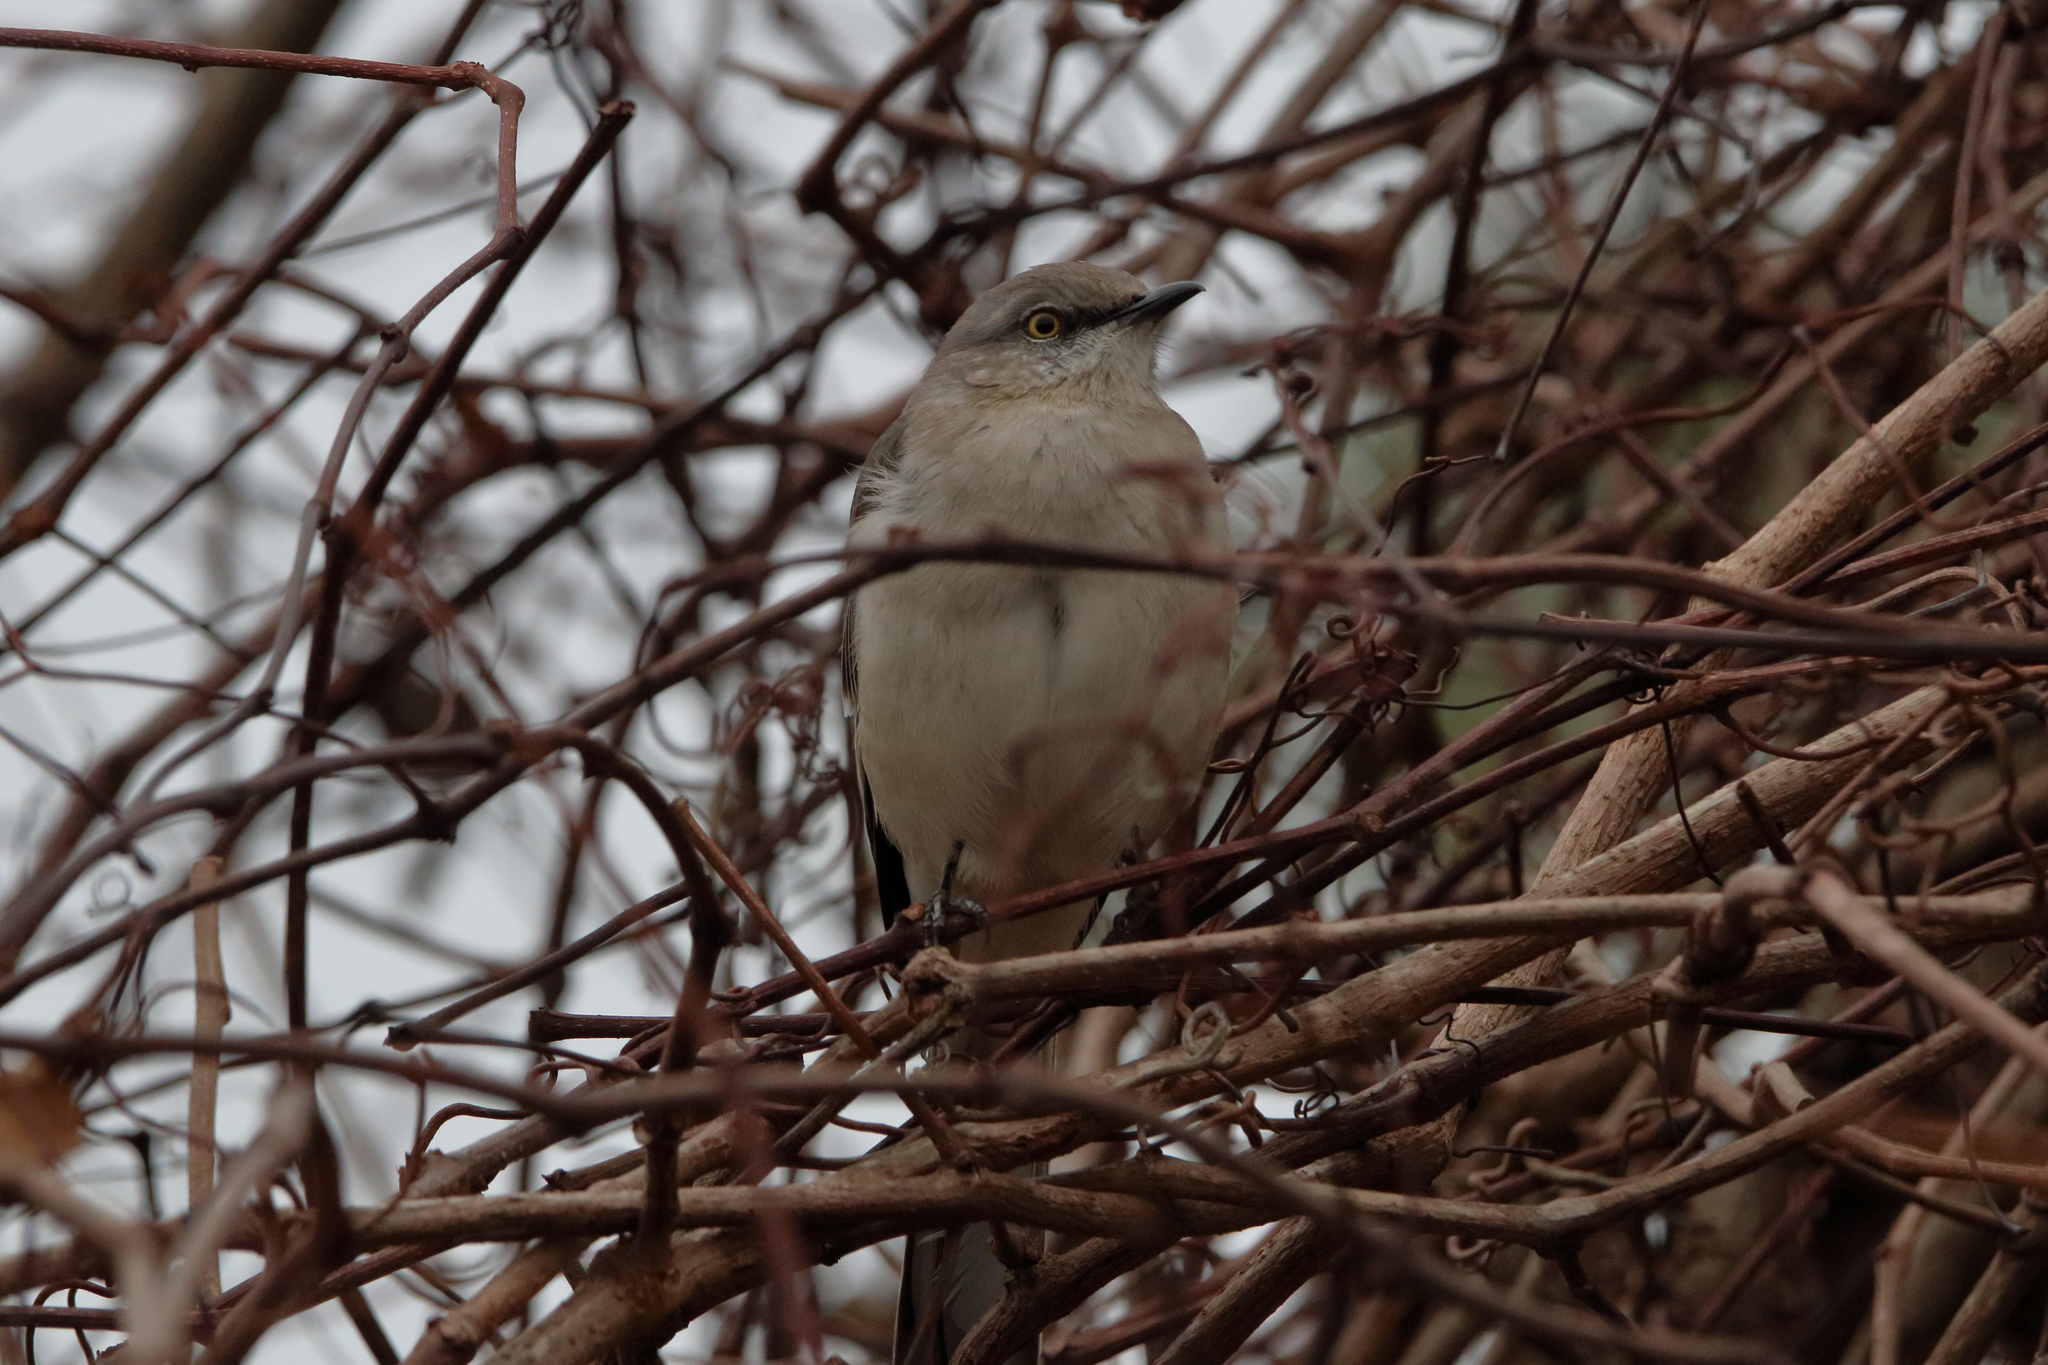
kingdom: Animalia
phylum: Chordata
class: Aves
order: Passeriformes
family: Mimidae
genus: Mimus
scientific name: Mimus polyglottos
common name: Northern mockingbird
